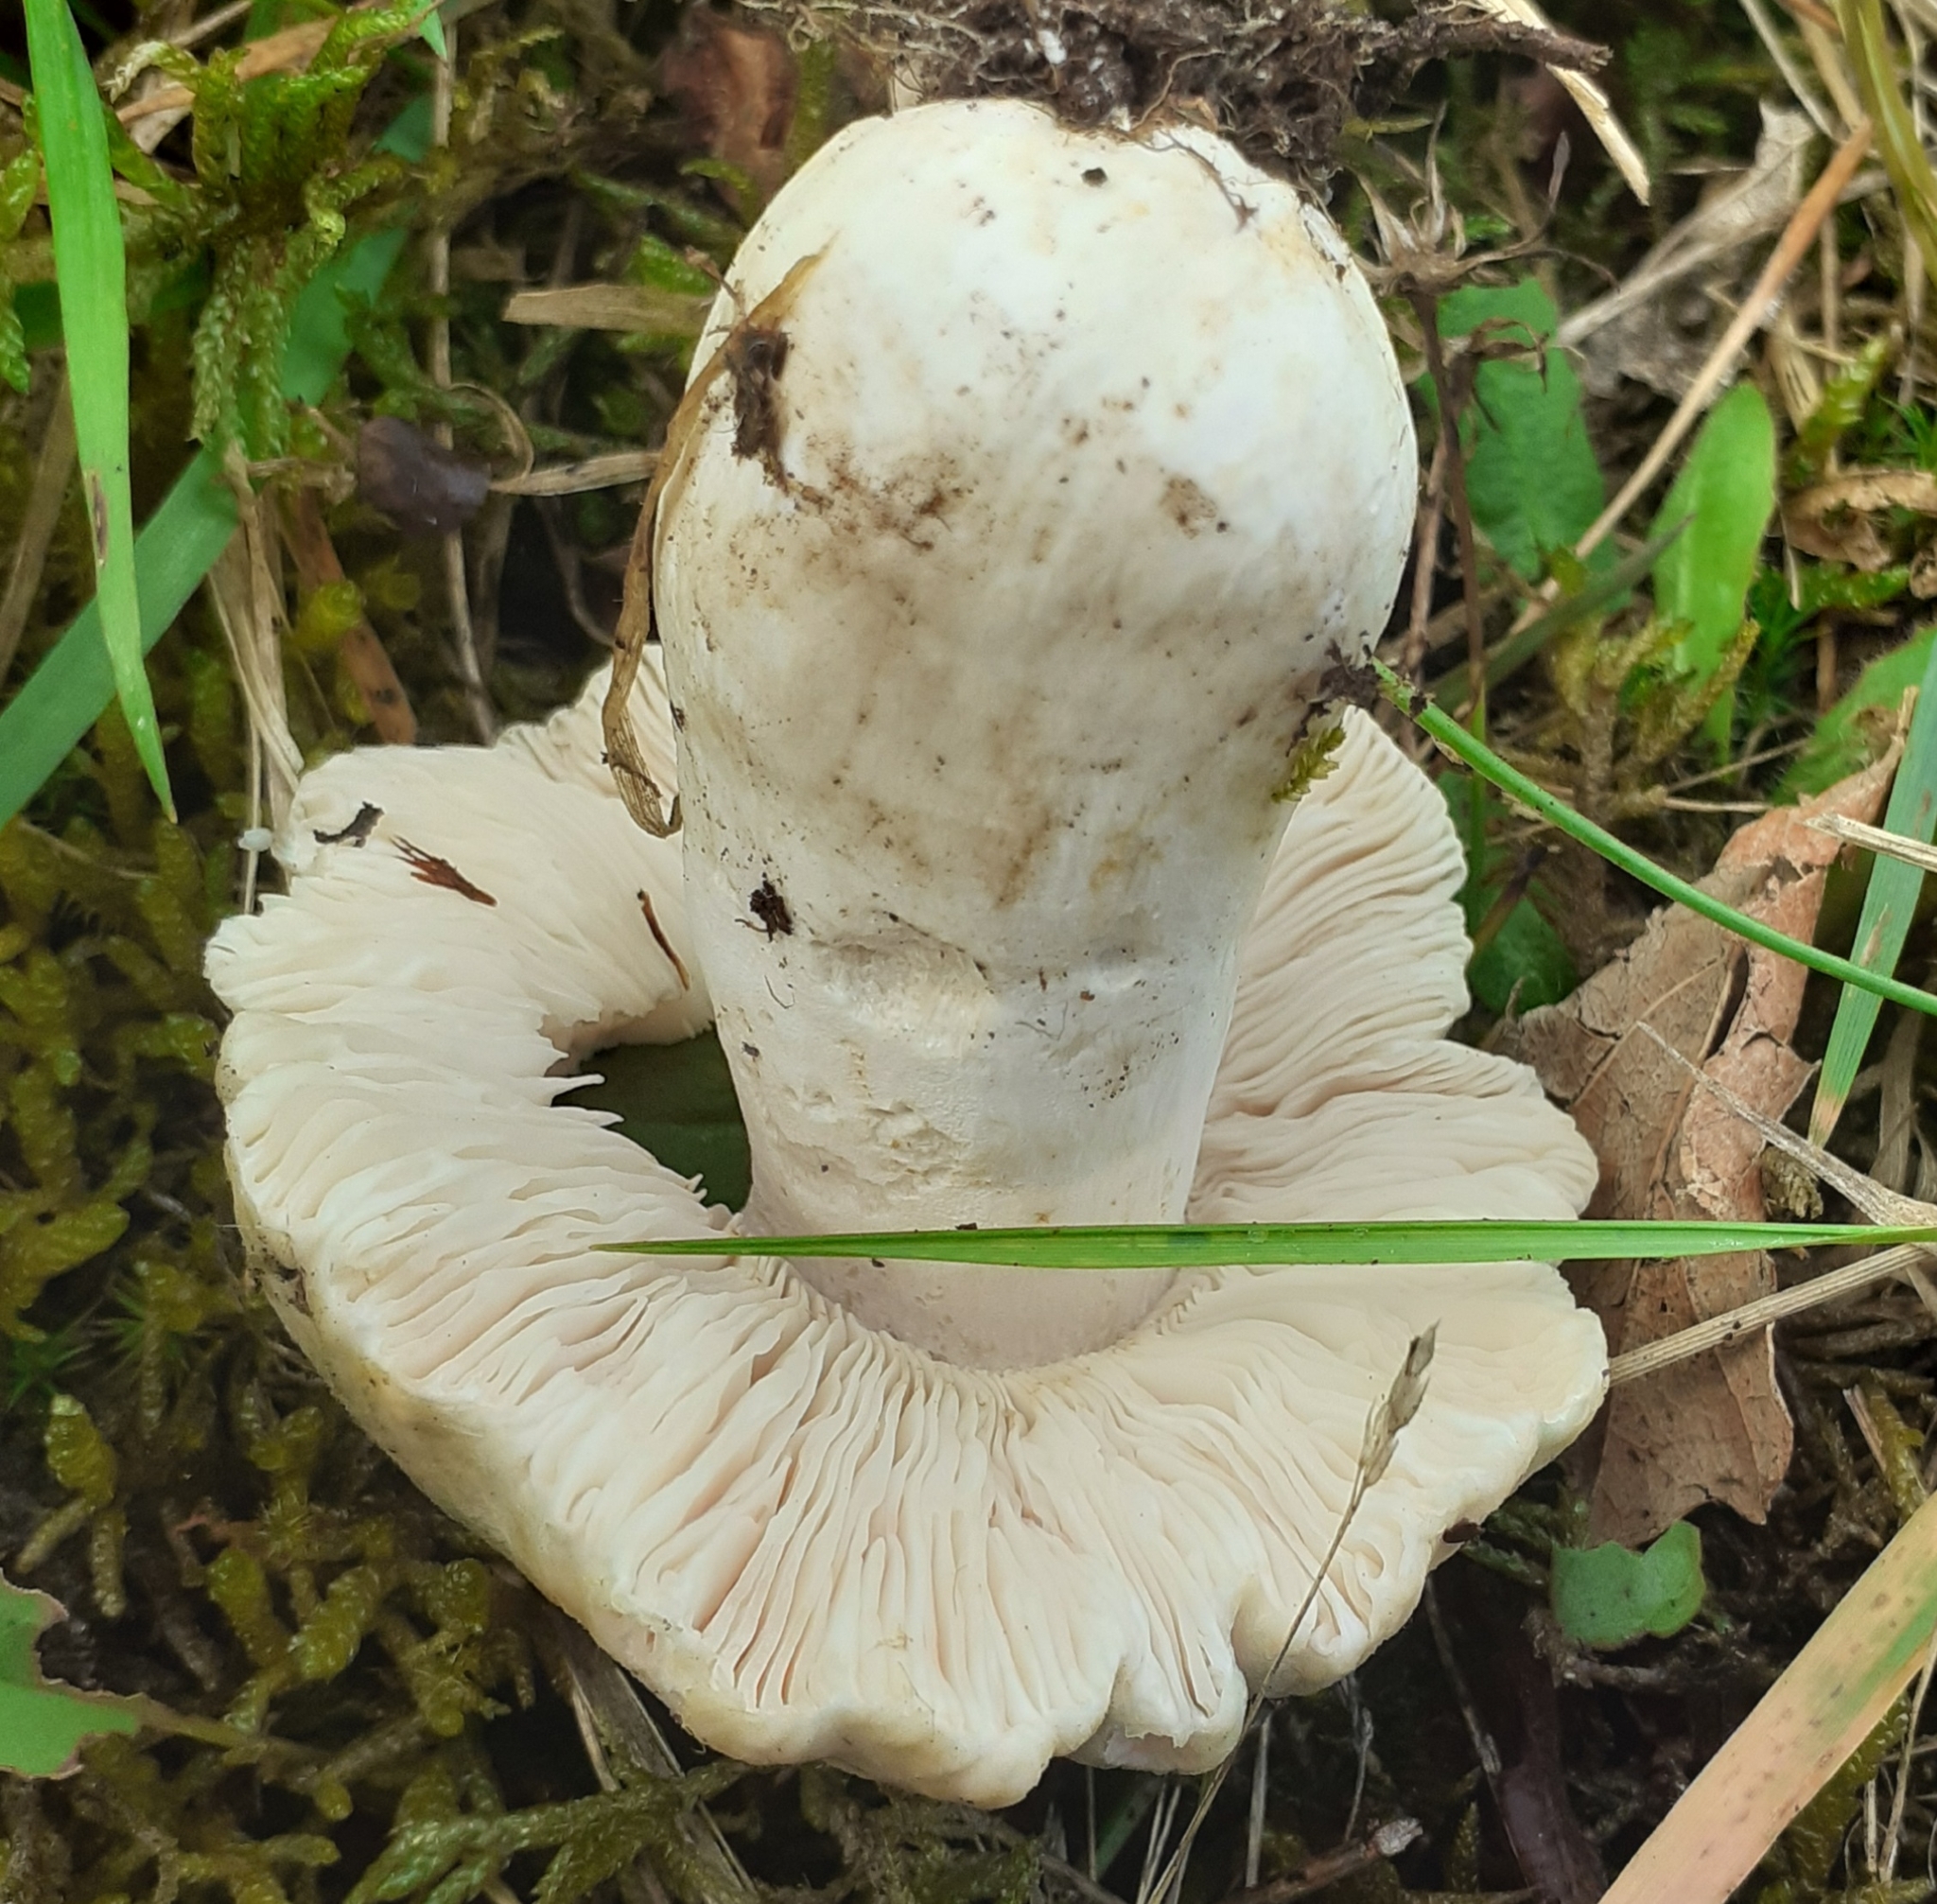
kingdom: Fungi
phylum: Basidiomycota
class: Agaricomycetes
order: Russulales
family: Russulaceae
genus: Russula
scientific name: Russula virescens
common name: Greencracked brittlegill
